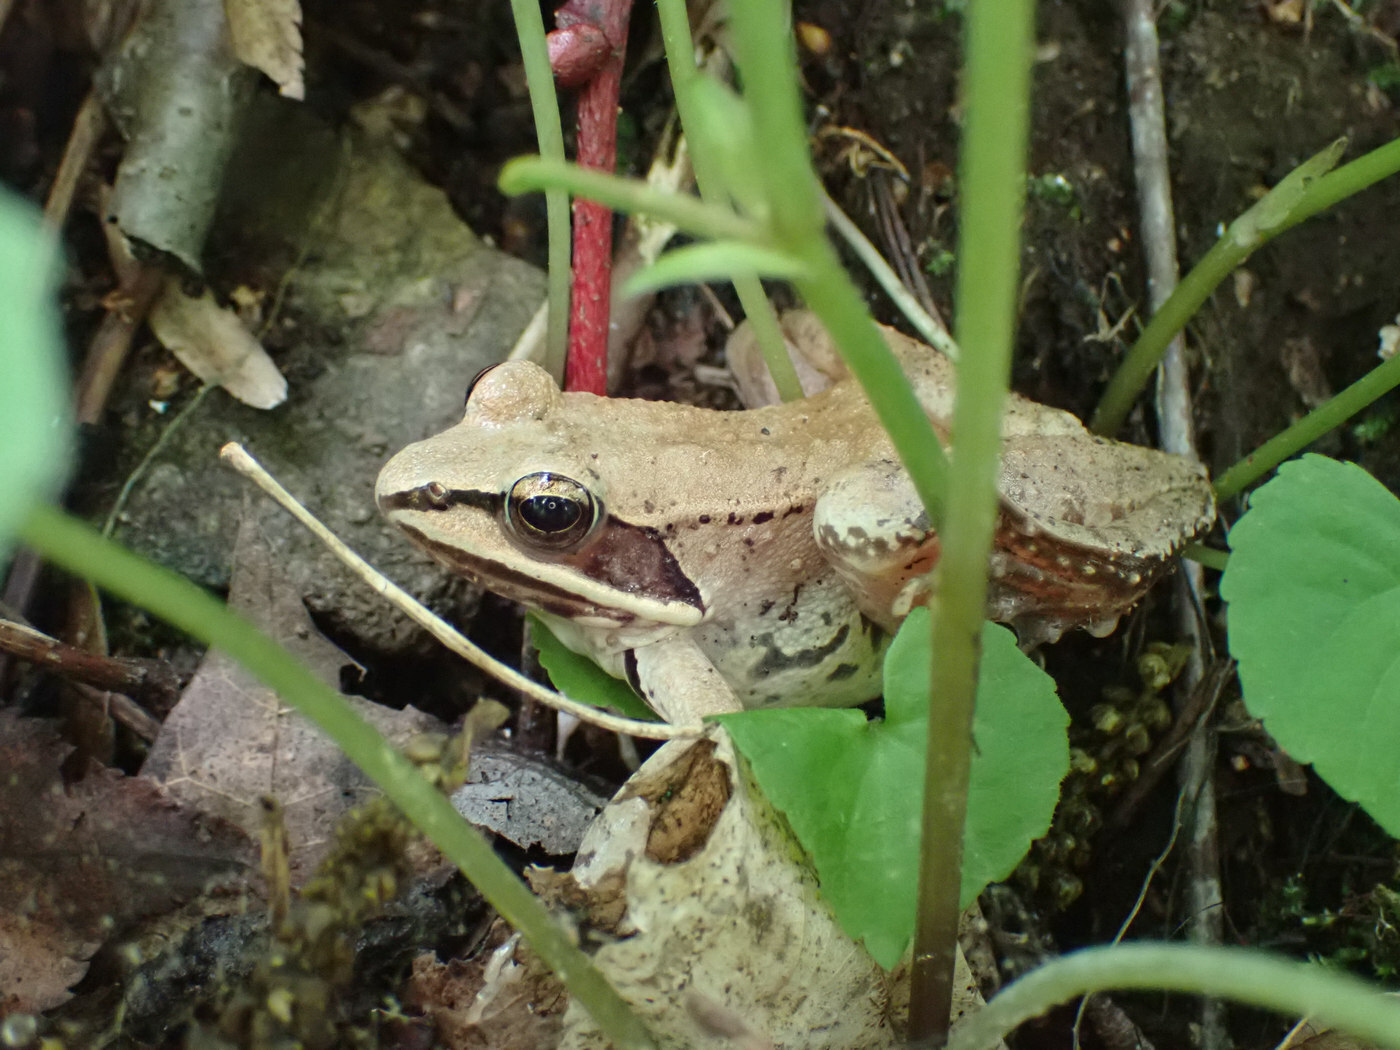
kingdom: Animalia
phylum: Chordata
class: Amphibia
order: Anura
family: Ranidae
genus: Lithobates
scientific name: Lithobates sylvaticus
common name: Wood frog
